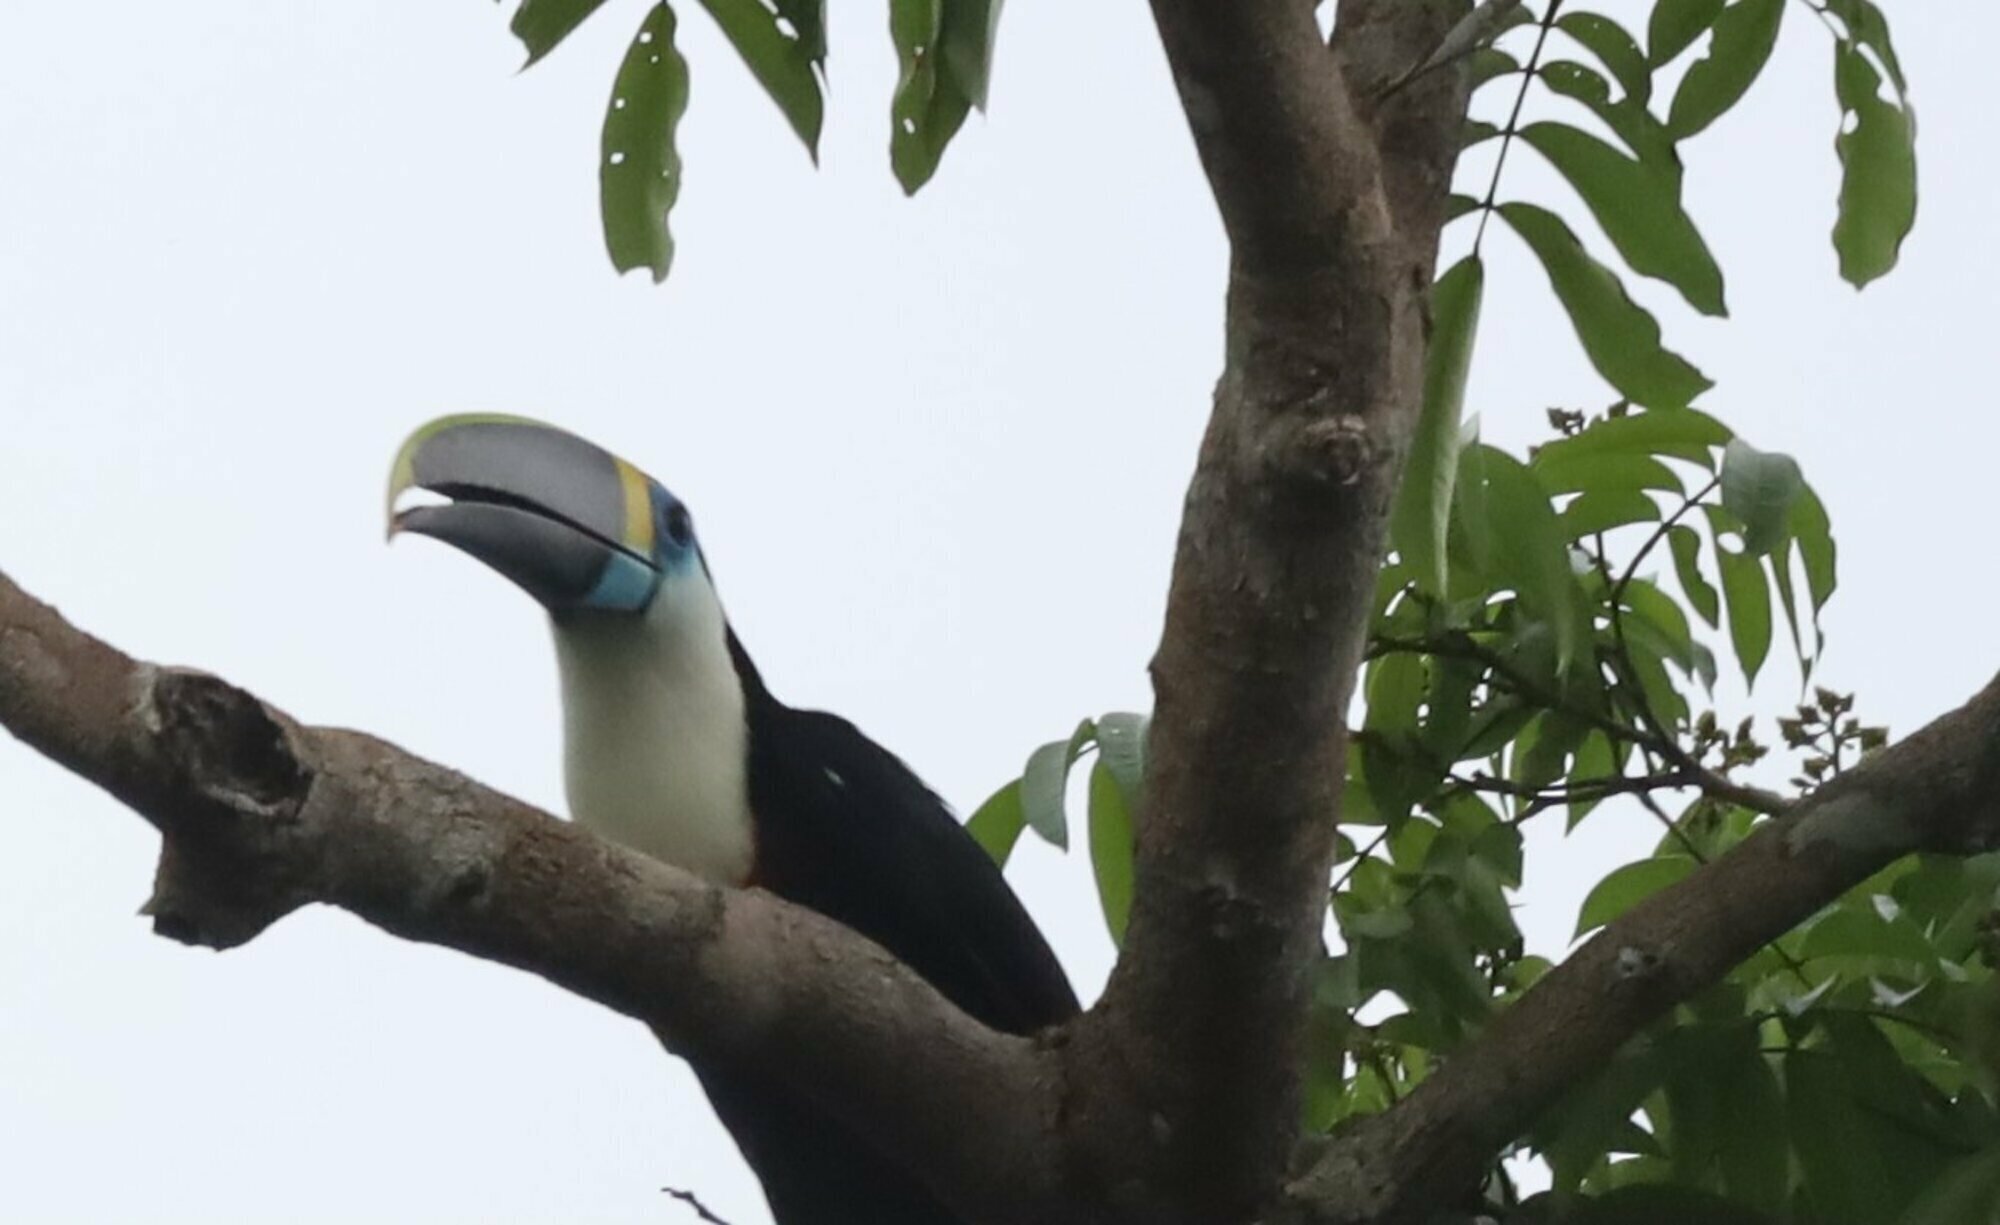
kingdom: Animalia
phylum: Chordata
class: Aves
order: Piciformes
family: Ramphastidae
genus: Ramphastos
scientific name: Ramphastos tucanus
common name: White-throated toucan
